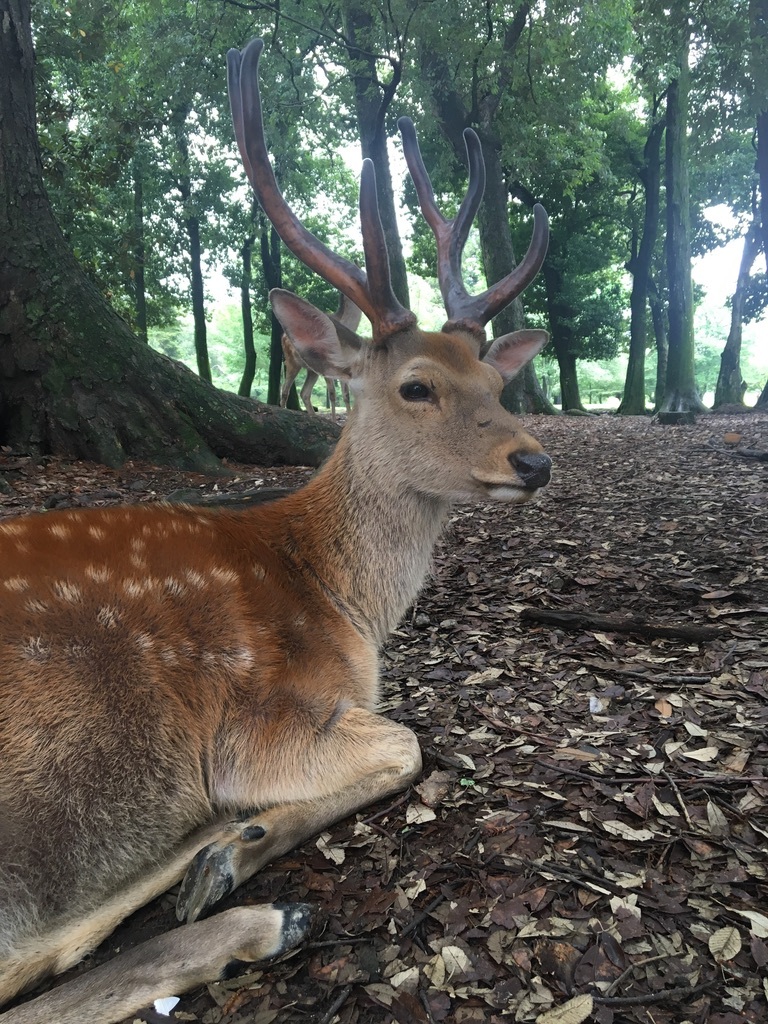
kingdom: Animalia
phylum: Chordata
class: Mammalia
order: Artiodactyla
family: Cervidae
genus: Cervus
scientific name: Cervus nippon
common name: Sika deer
